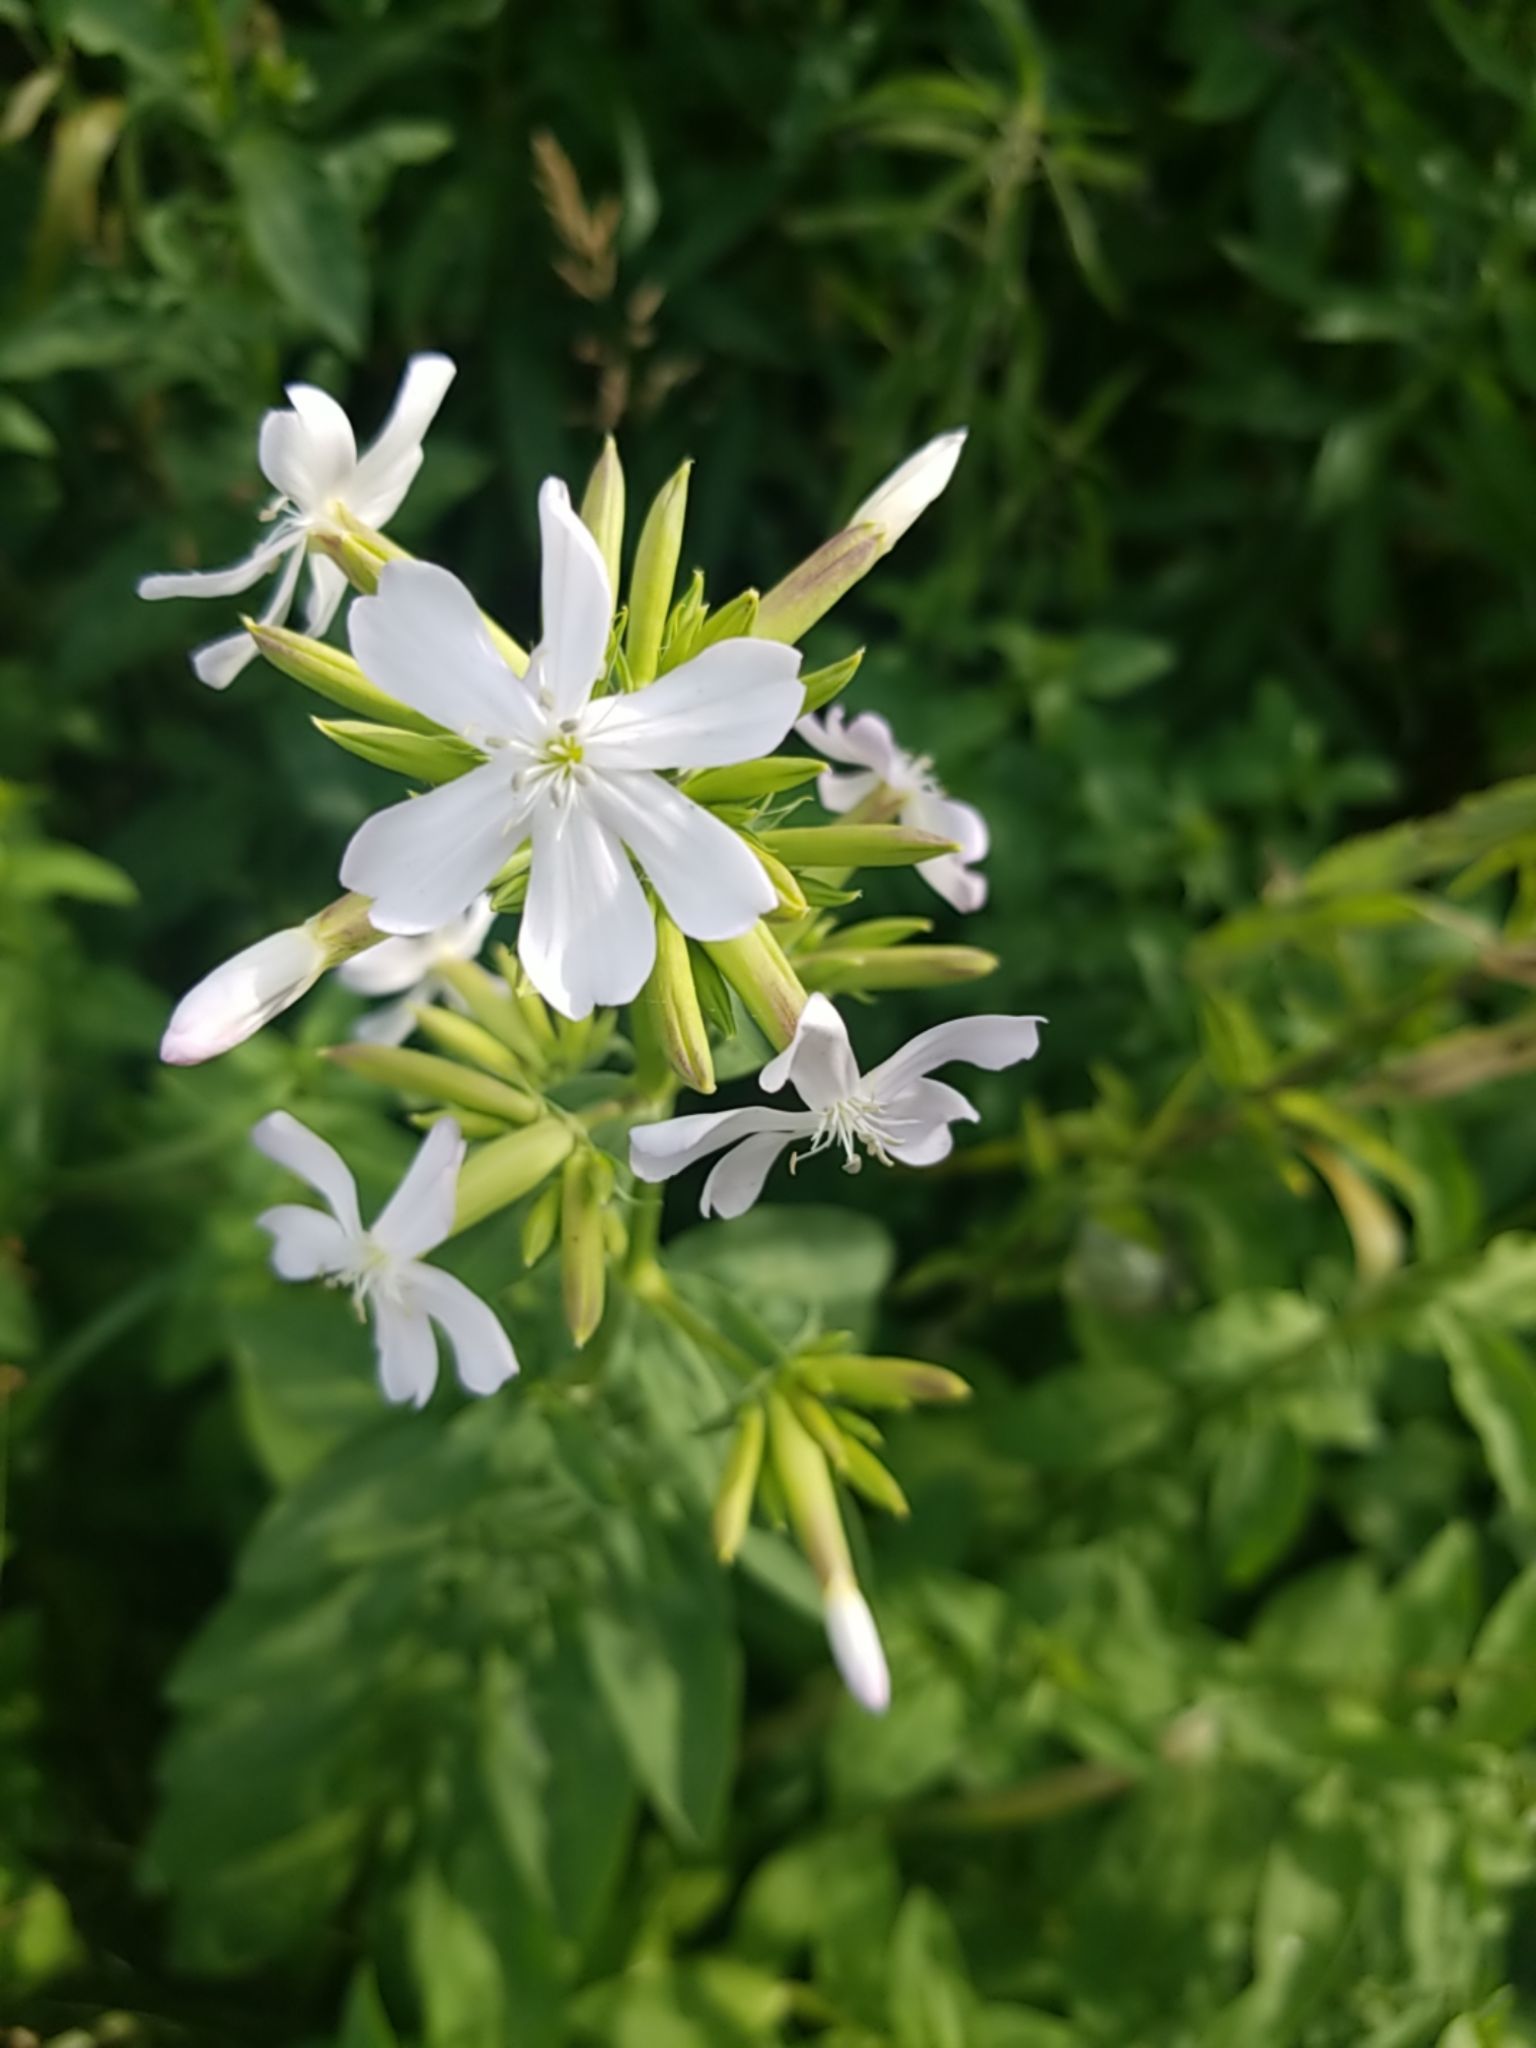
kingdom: Plantae
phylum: Tracheophyta
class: Magnoliopsida
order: Caryophyllales
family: Caryophyllaceae
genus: Saponaria
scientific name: Saponaria officinalis
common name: Soapwort
